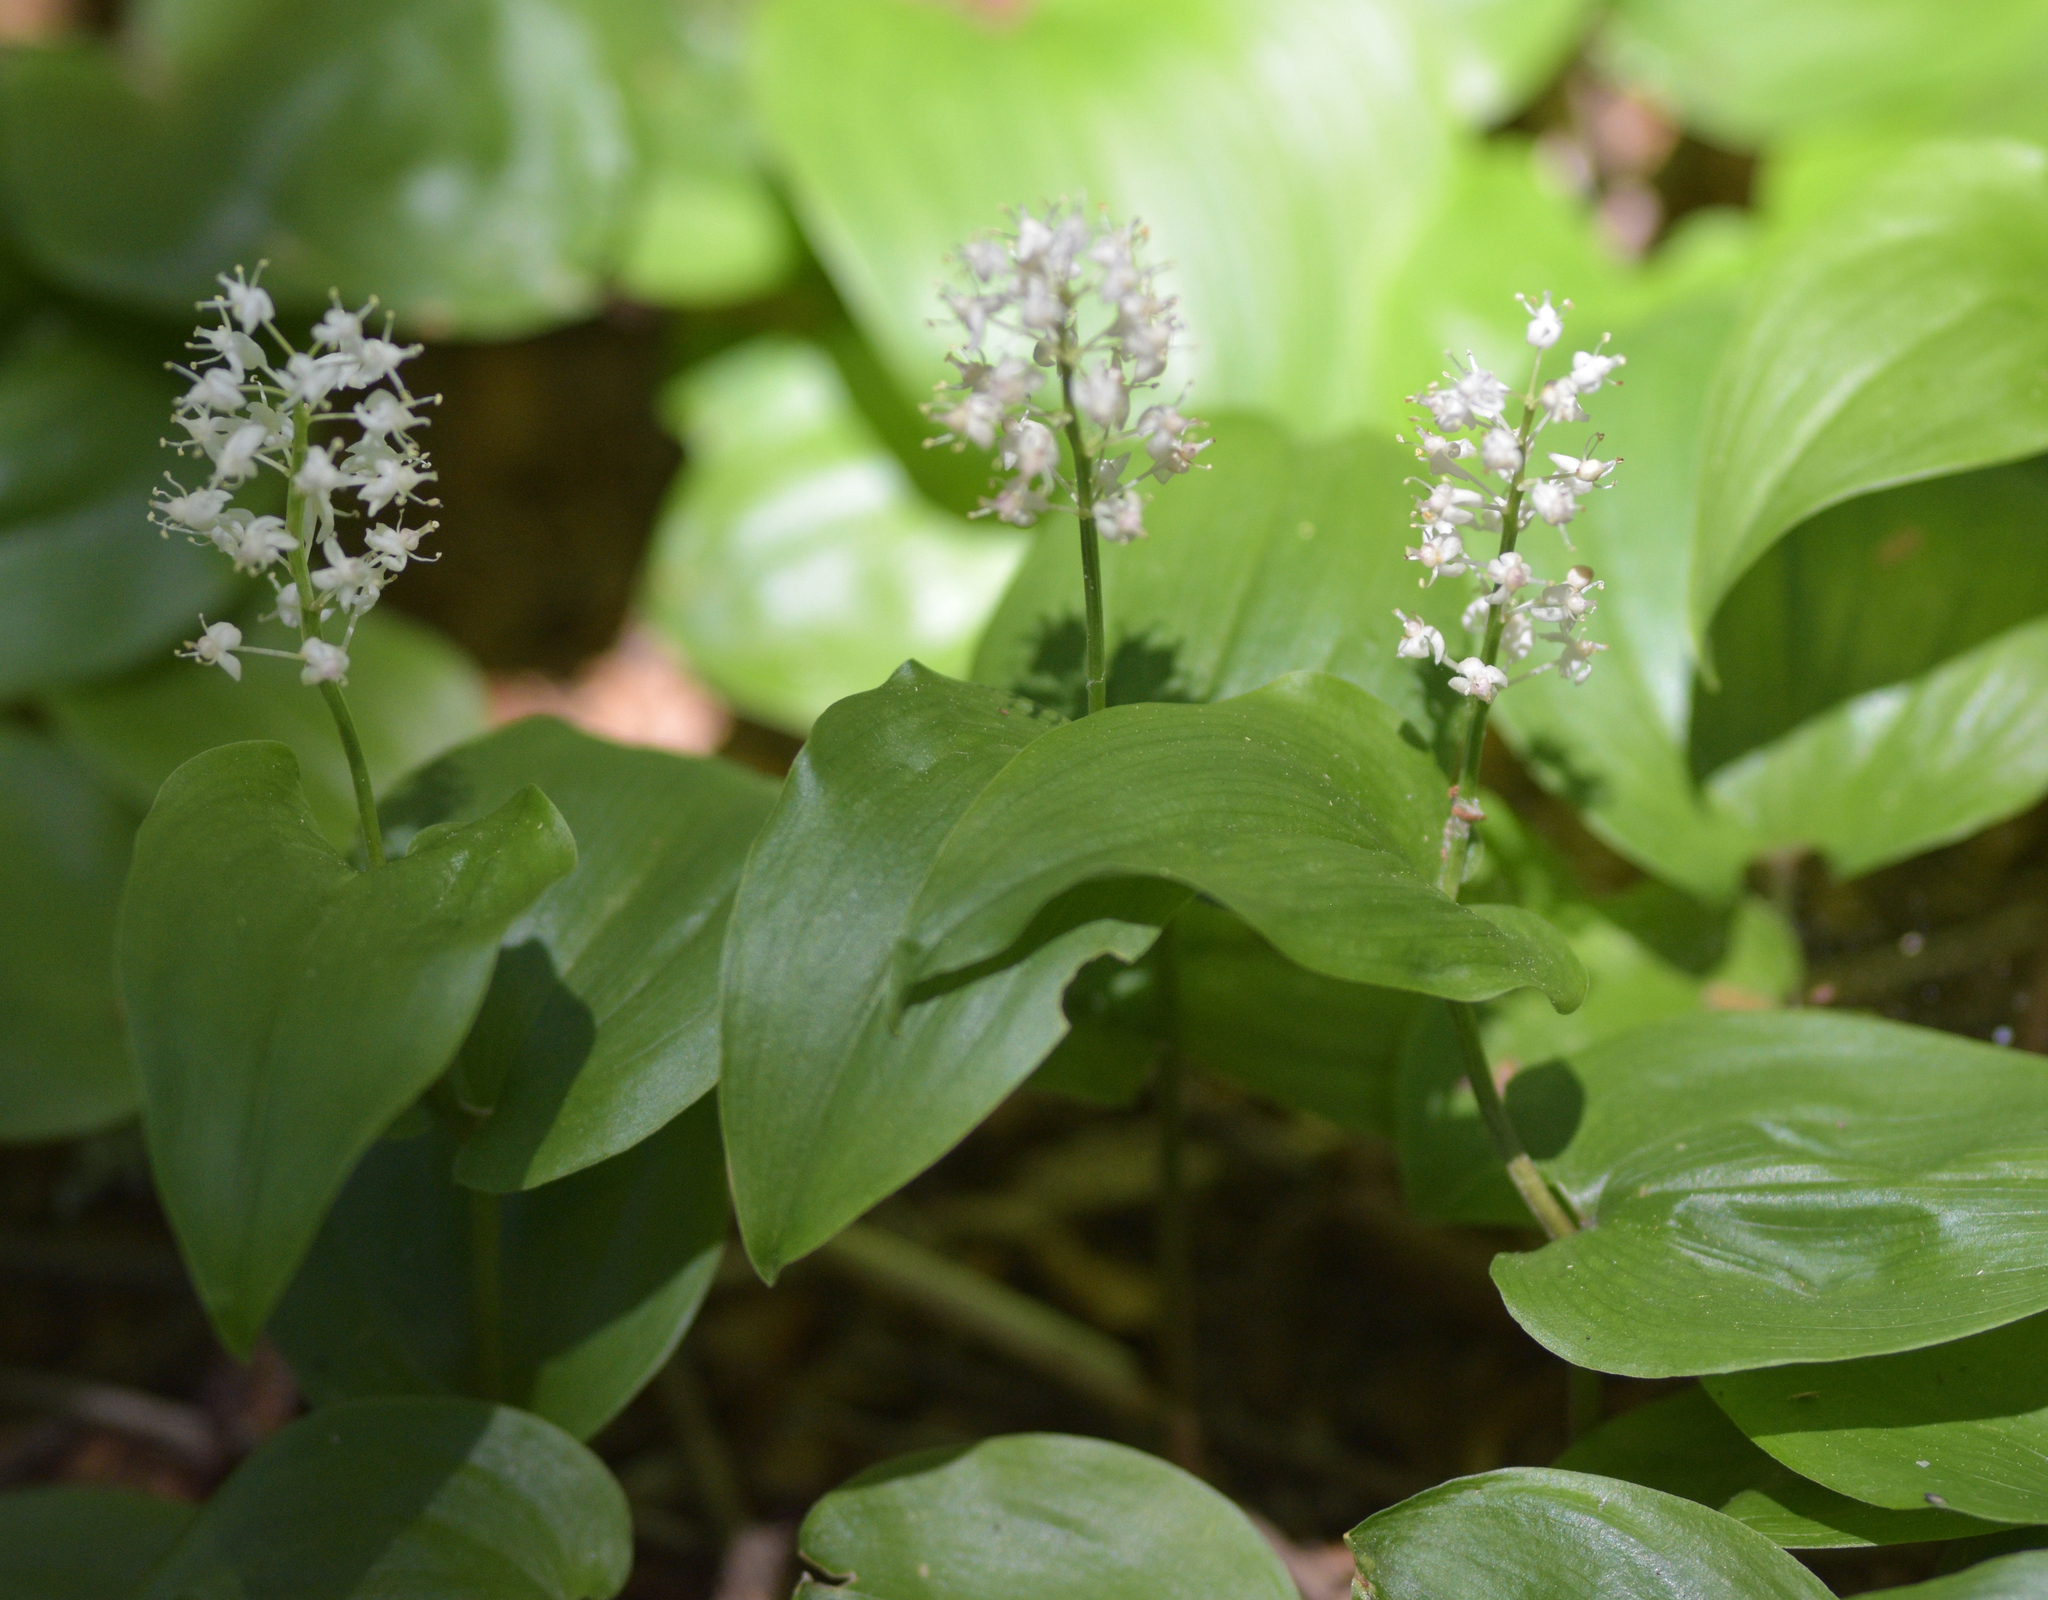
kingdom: Plantae
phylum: Tracheophyta
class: Liliopsida
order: Asparagales
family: Asparagaceae
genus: Maianthemum
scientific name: Maianthemum canadense
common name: False lily-of-the-valley
